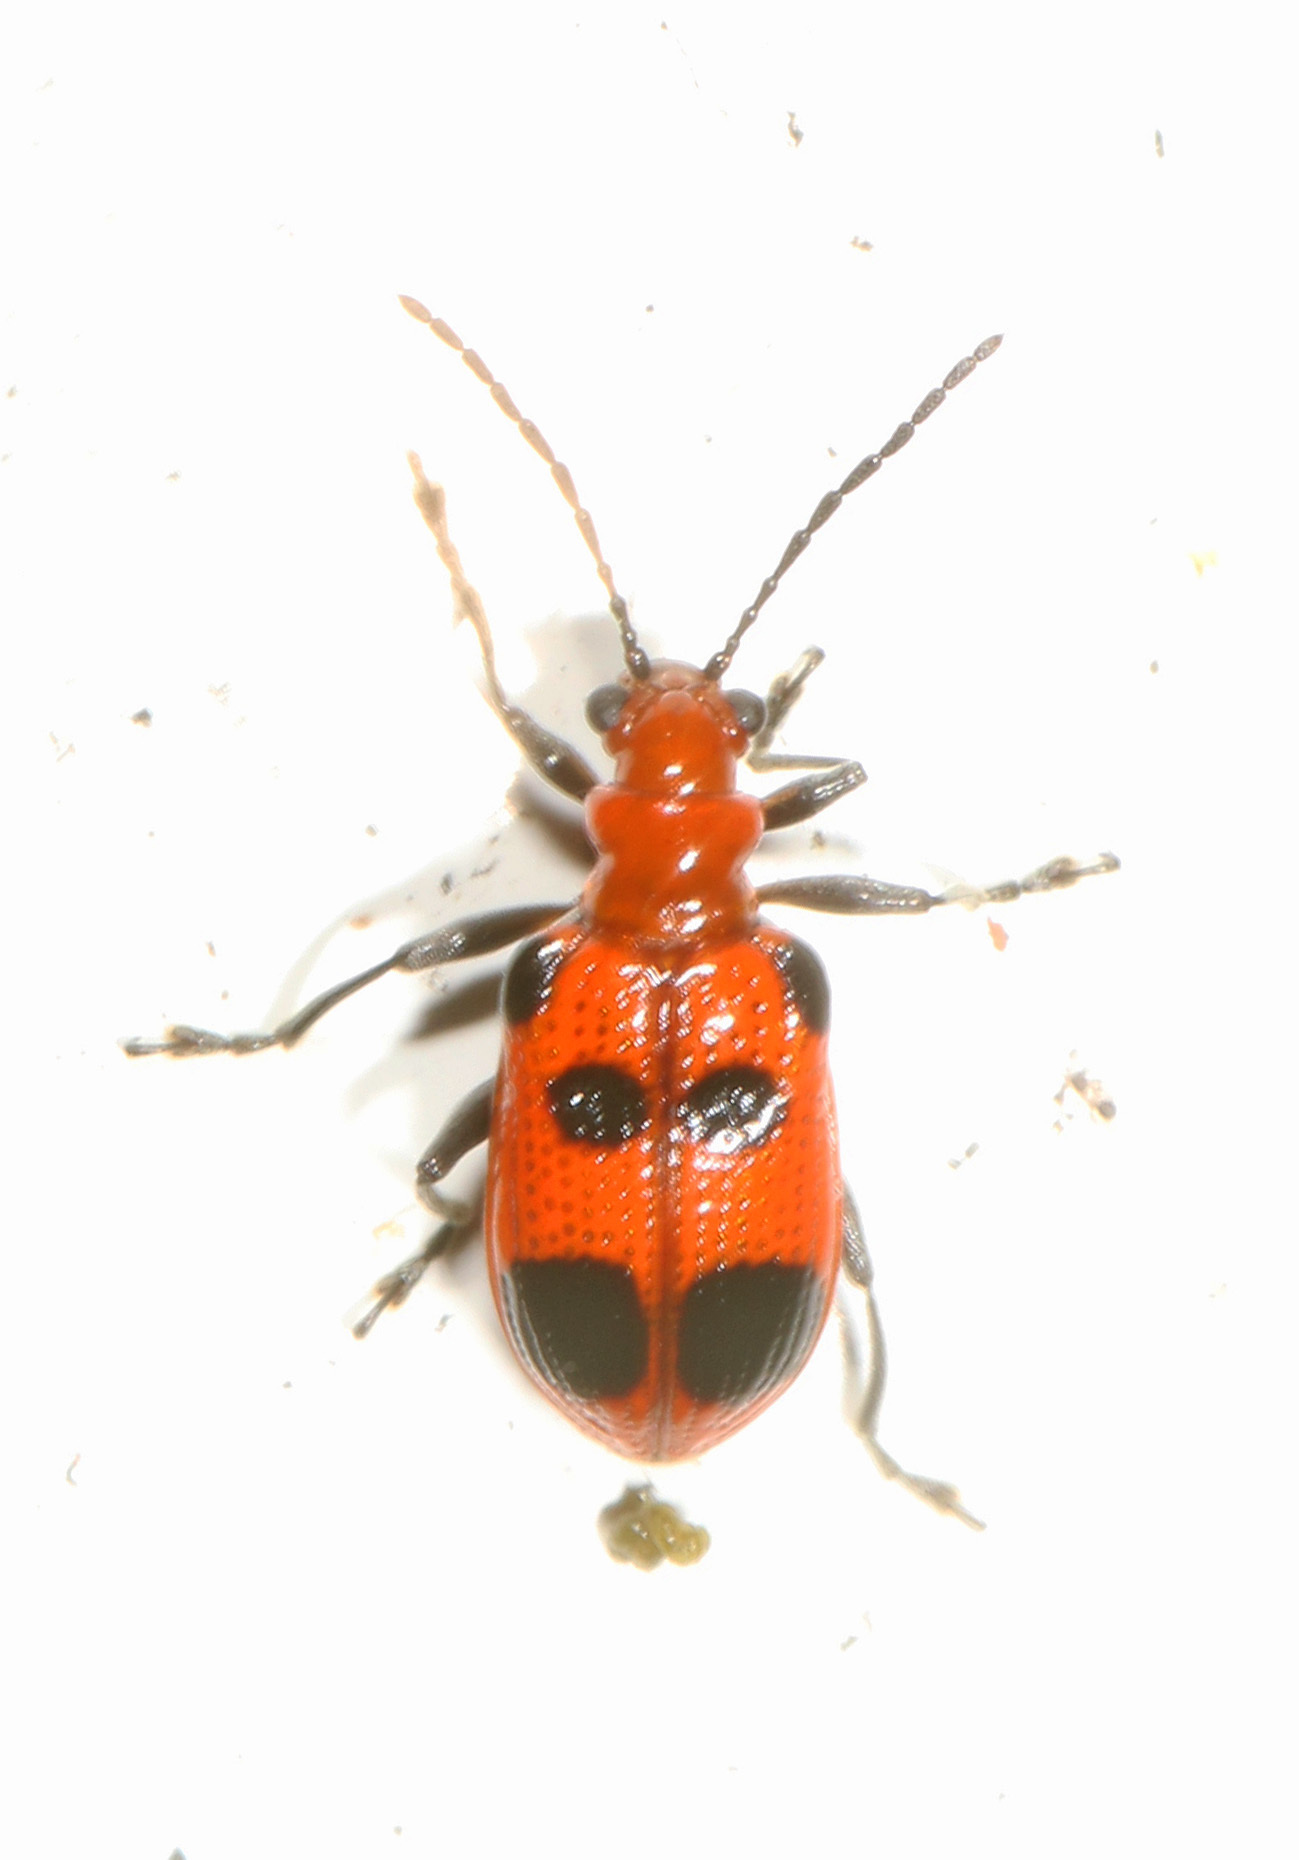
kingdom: Animalia
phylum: Arthropoda
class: Insecta
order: Coleoptera
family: Chrysomelidae
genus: Neolema
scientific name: Neolema sexpunctata
